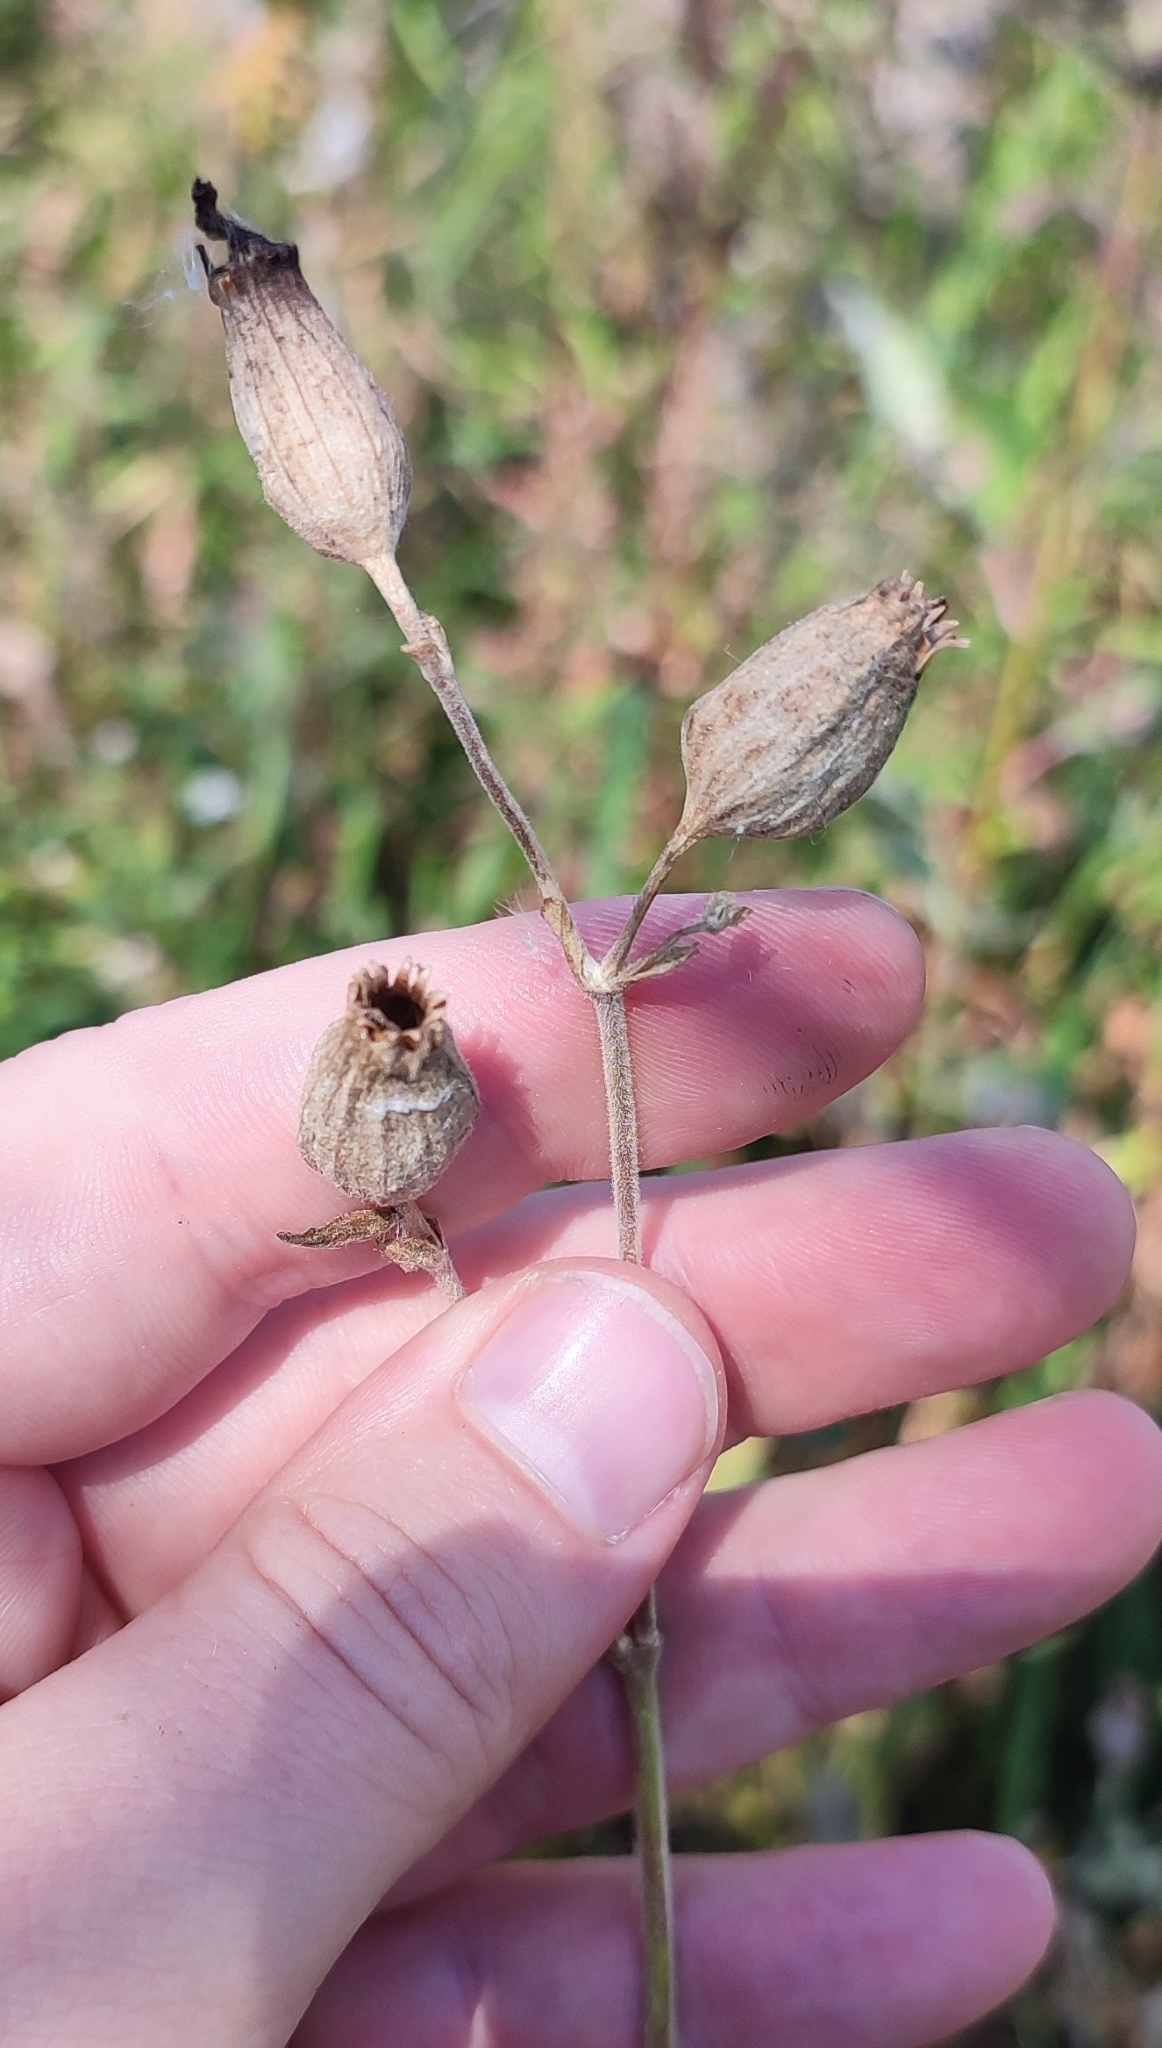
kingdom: Plantae
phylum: Tracheophyta
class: Magnoliopsida
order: Caryophyllales
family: Caryophyllaceae
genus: Silene
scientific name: Silene latifolia
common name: White campion
